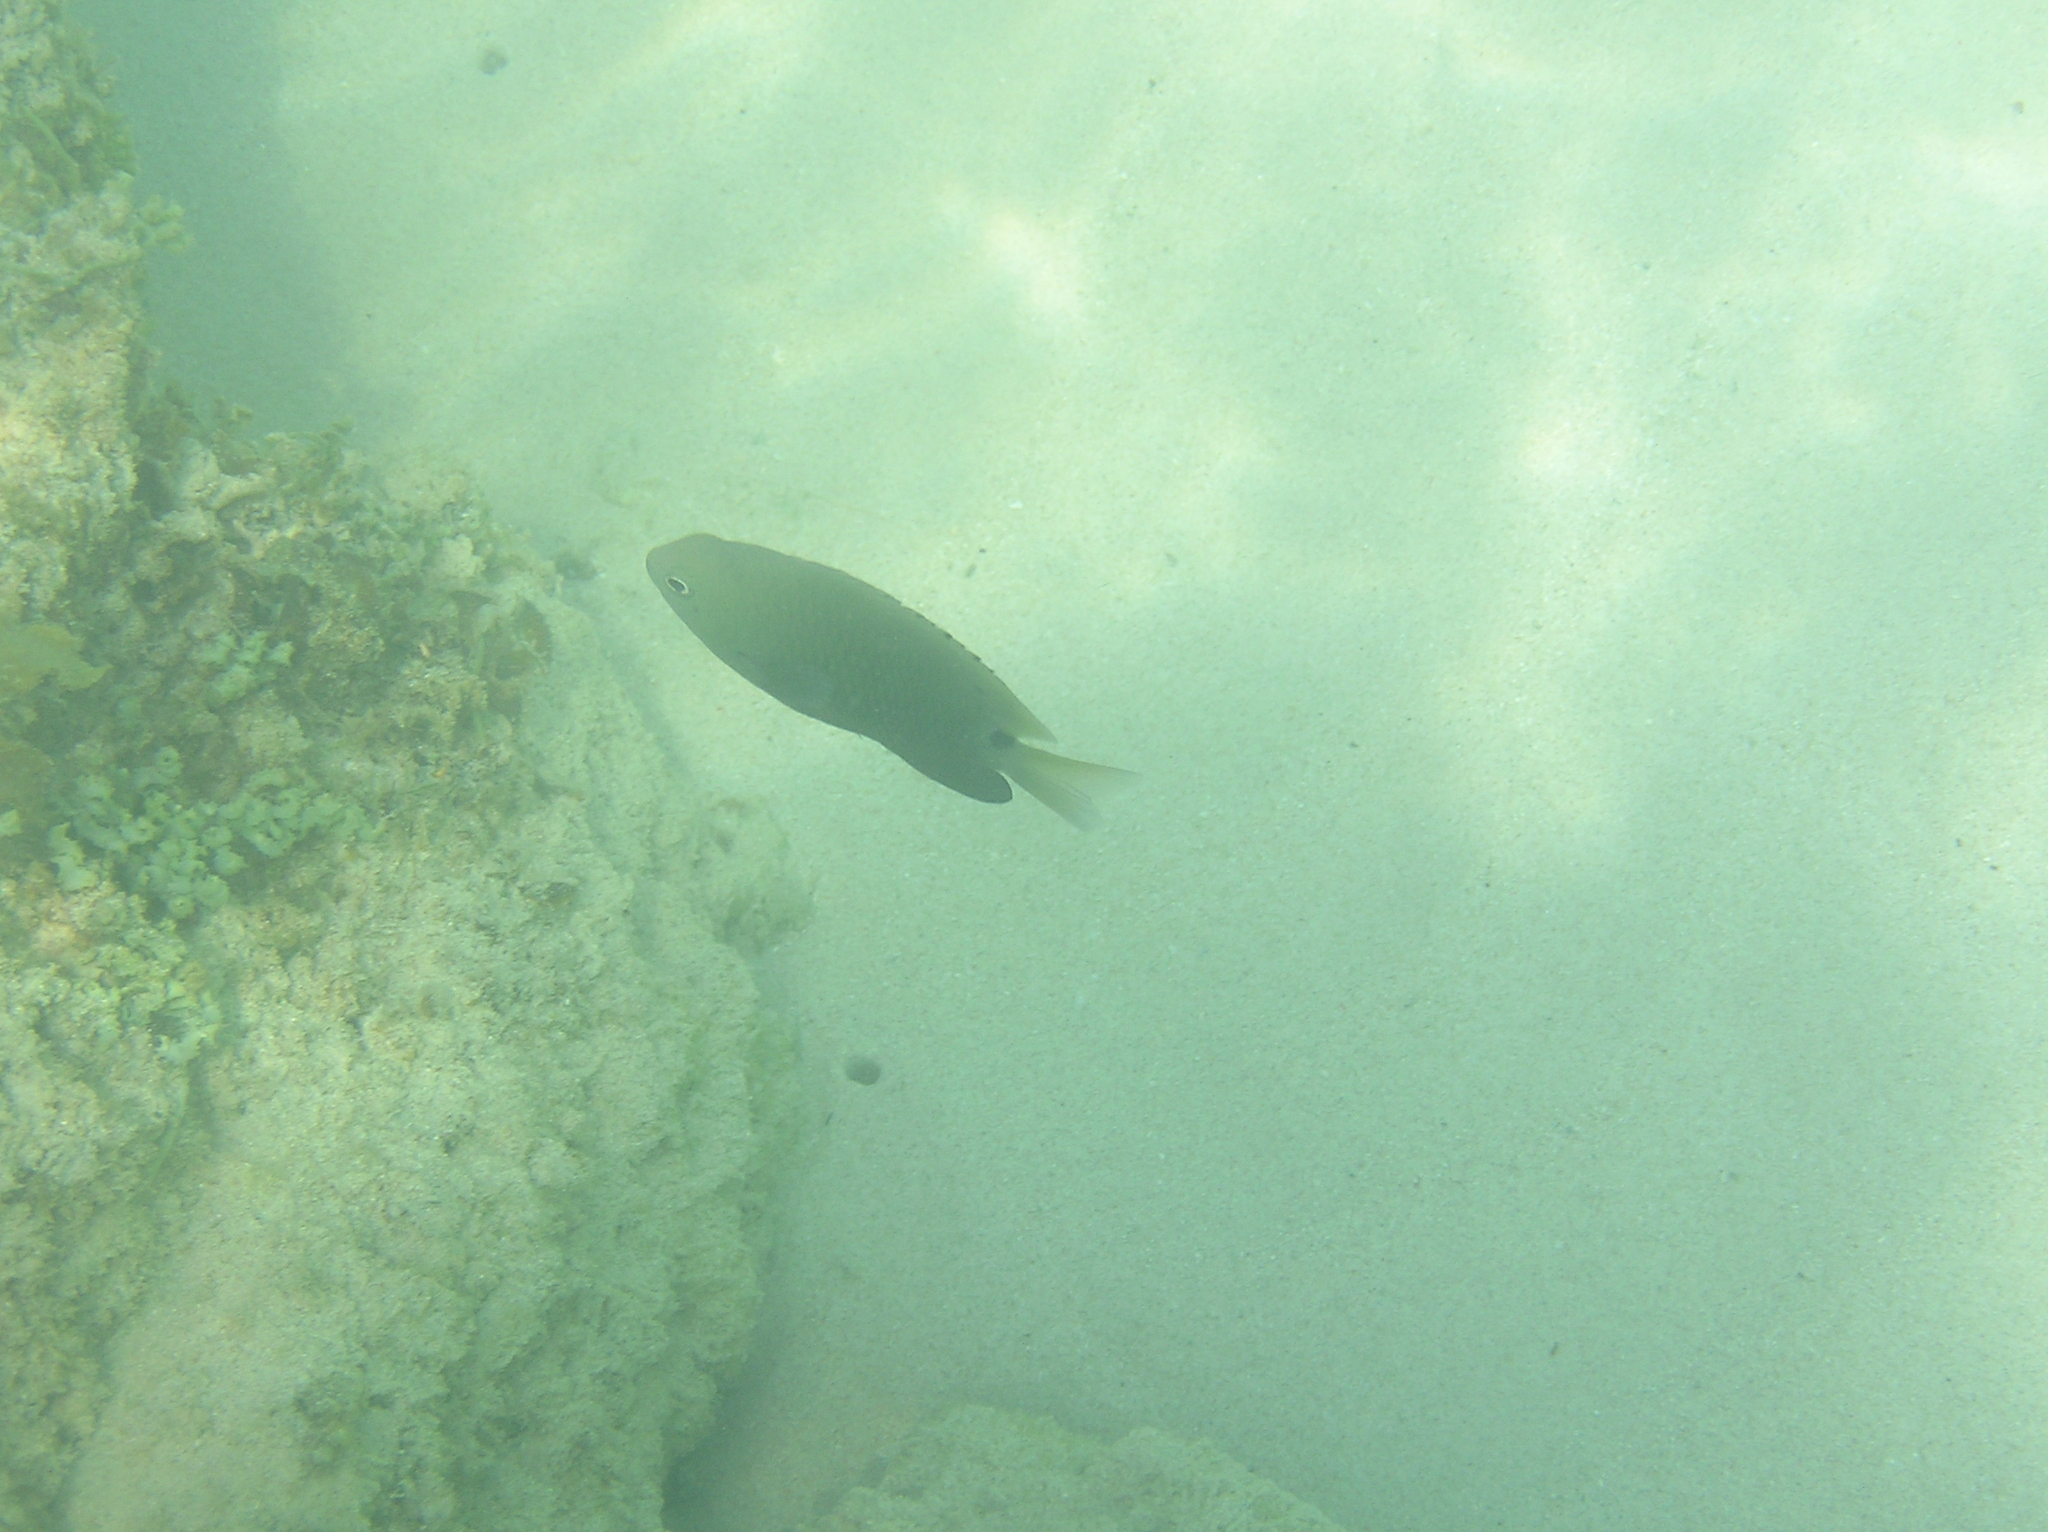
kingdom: Animalia
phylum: Chordata
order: Perciformes
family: Pomacentridae
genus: Pomacentrus
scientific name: Pomacentrus tripunctatus
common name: Threespot damsel
